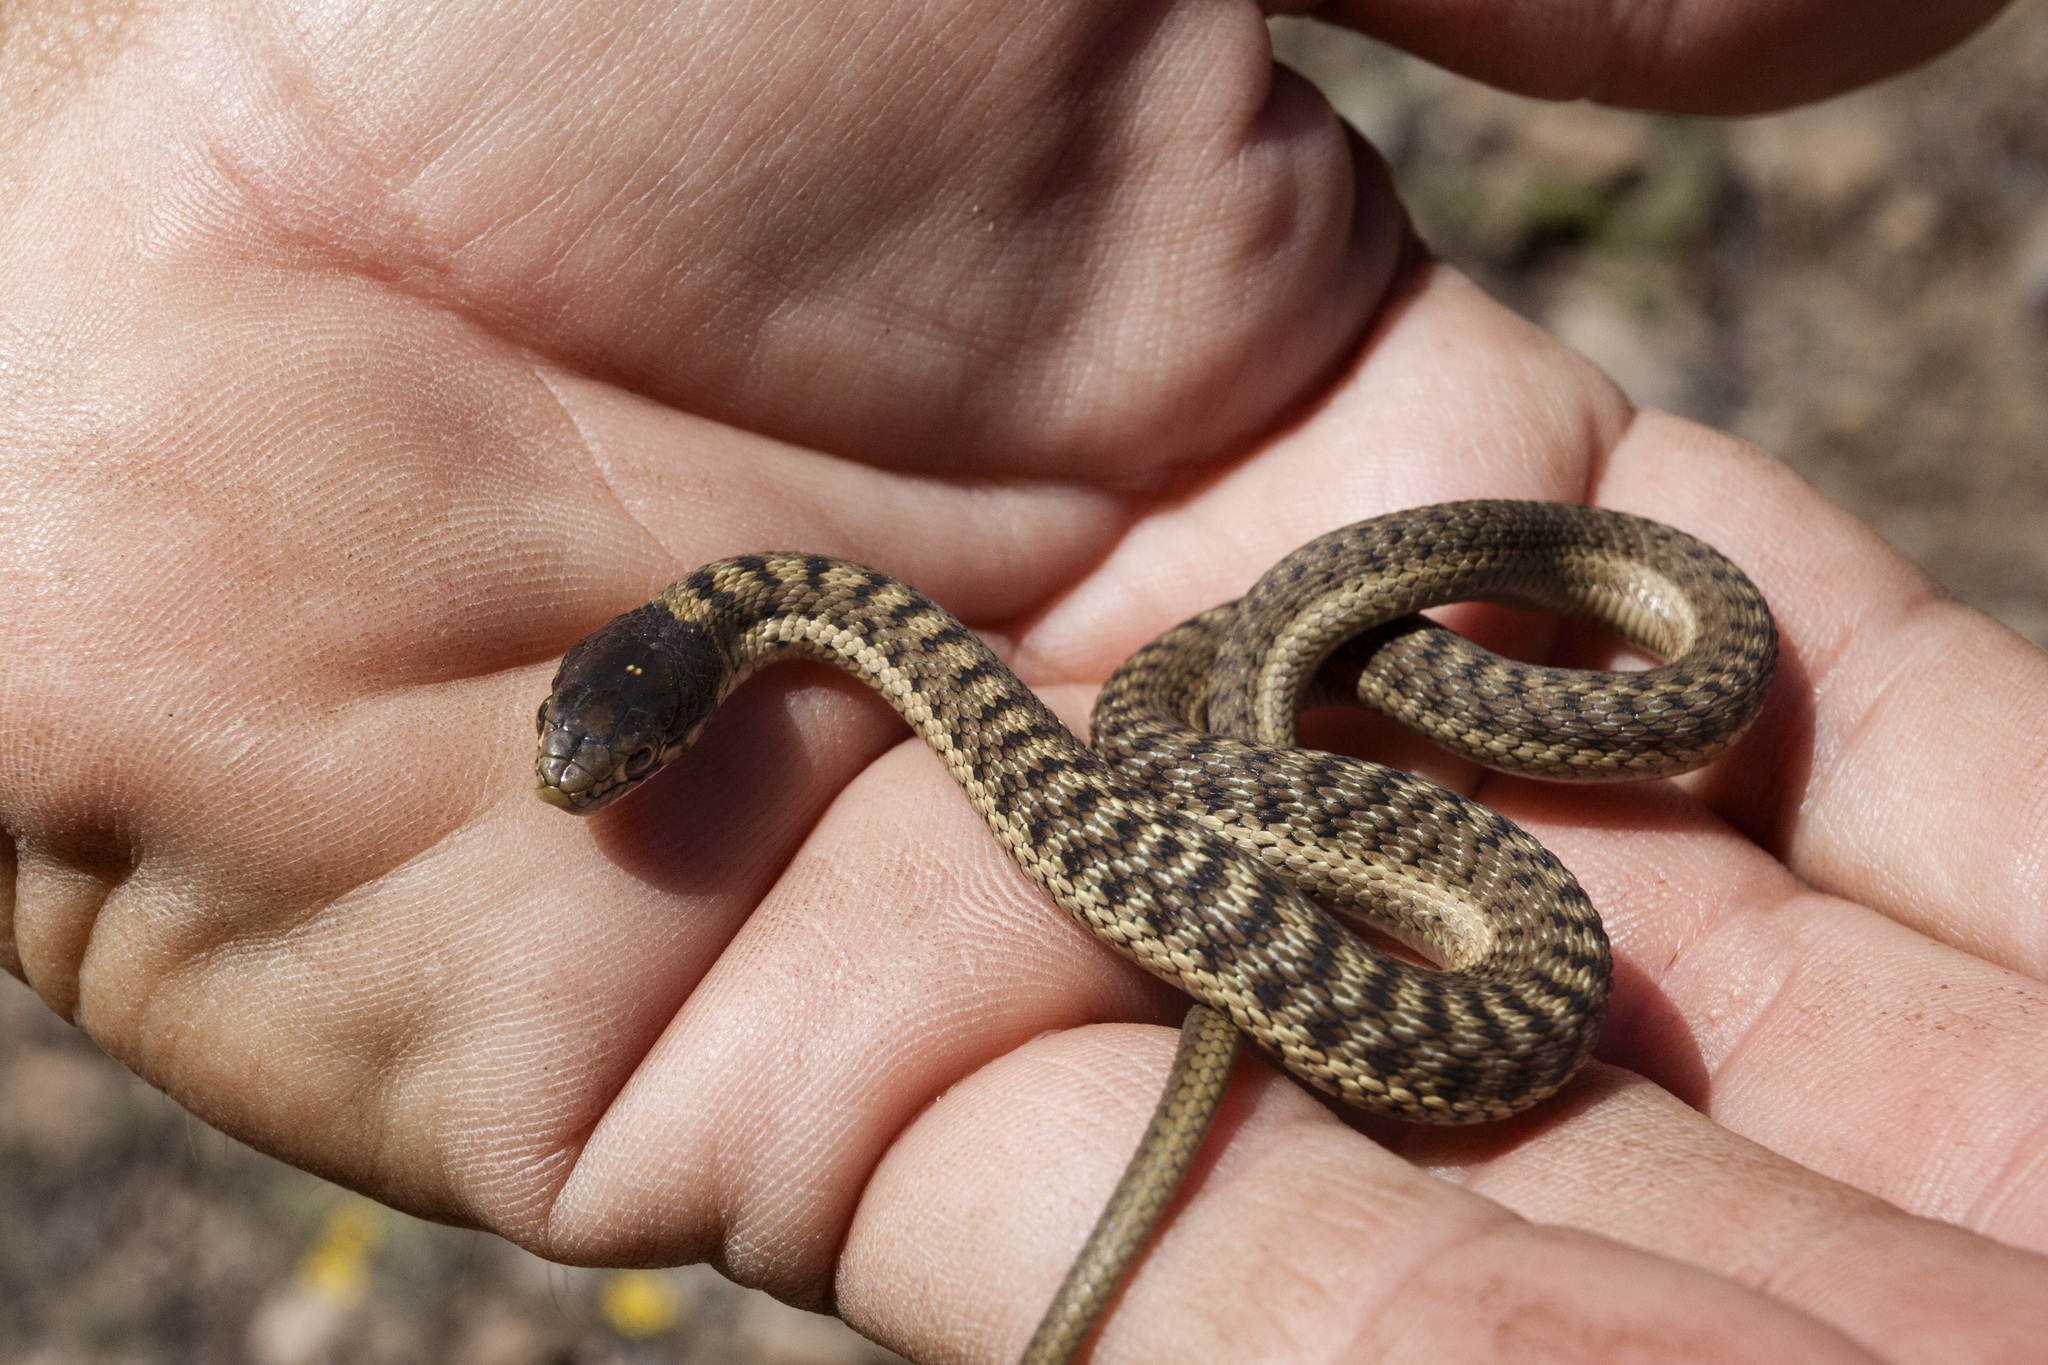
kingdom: Animalia
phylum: Chordata
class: Squamata
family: Colubridae
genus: Thamnophis
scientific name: Thamnophis elegans
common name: Western terrestrial garter snake
